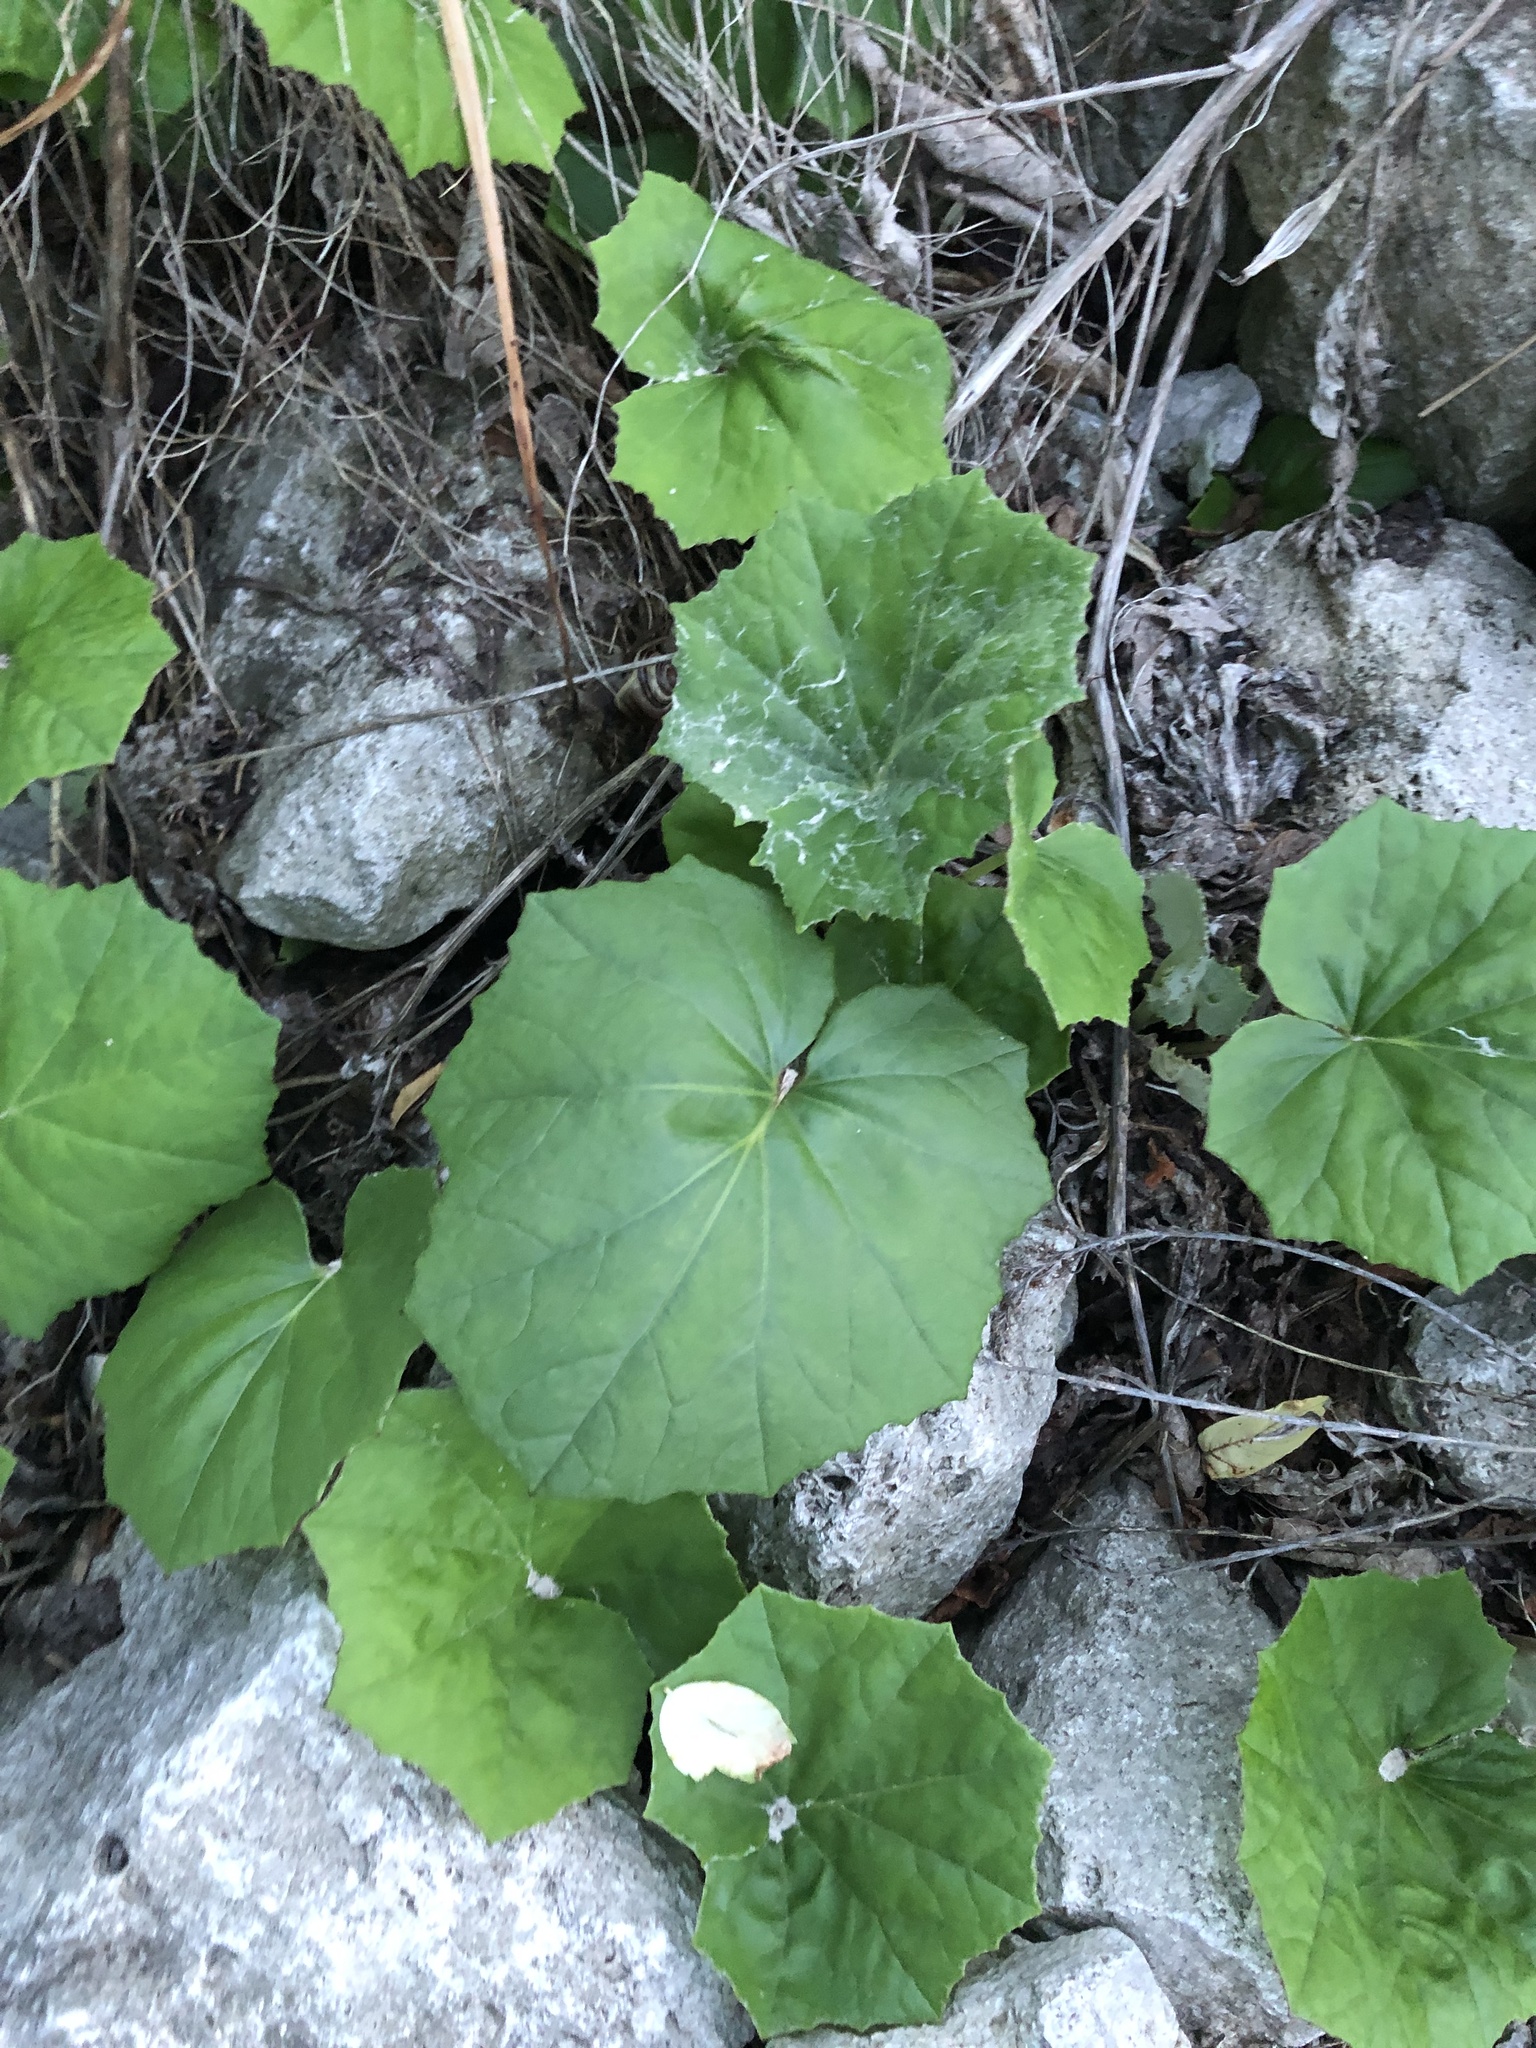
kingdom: Plantae
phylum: Tracheophyta
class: Magnoliopsida
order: Asterales
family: Asteraceae
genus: Tussilago
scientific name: Tussilago farfara
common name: Coltsfoot
